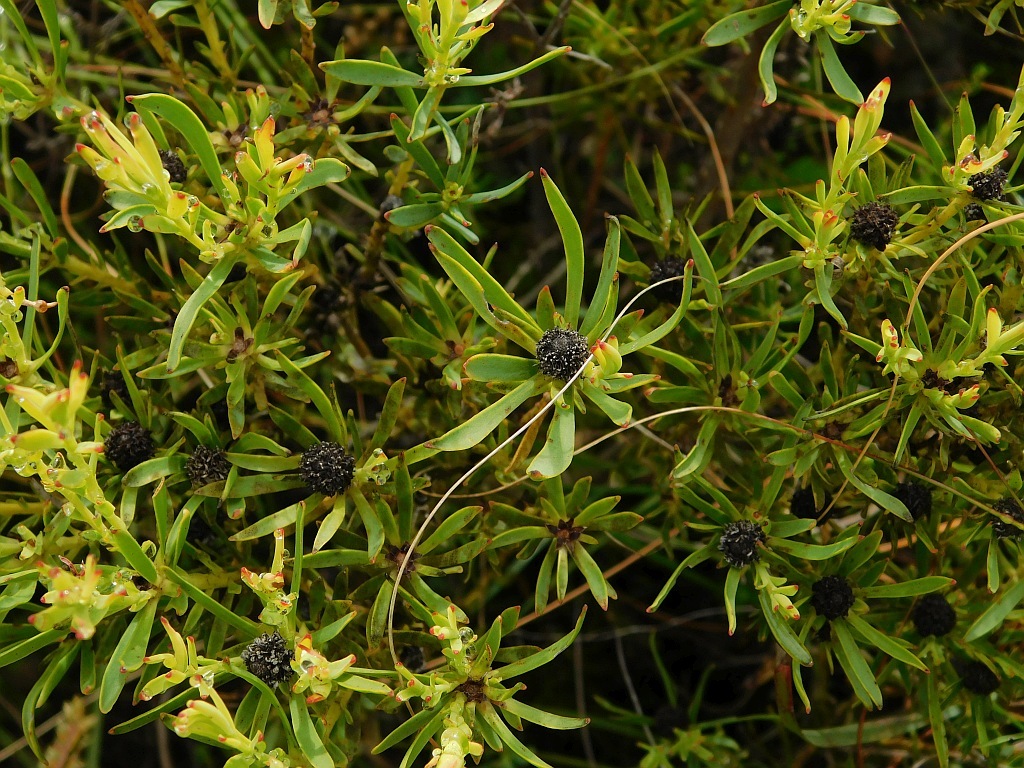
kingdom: Plantae
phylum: Tracheophyta
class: Magnoliopsida
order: Proteales
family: Proteaceae
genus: Leucadendron
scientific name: Leucadendron salignum
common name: Common sunshine conebush
